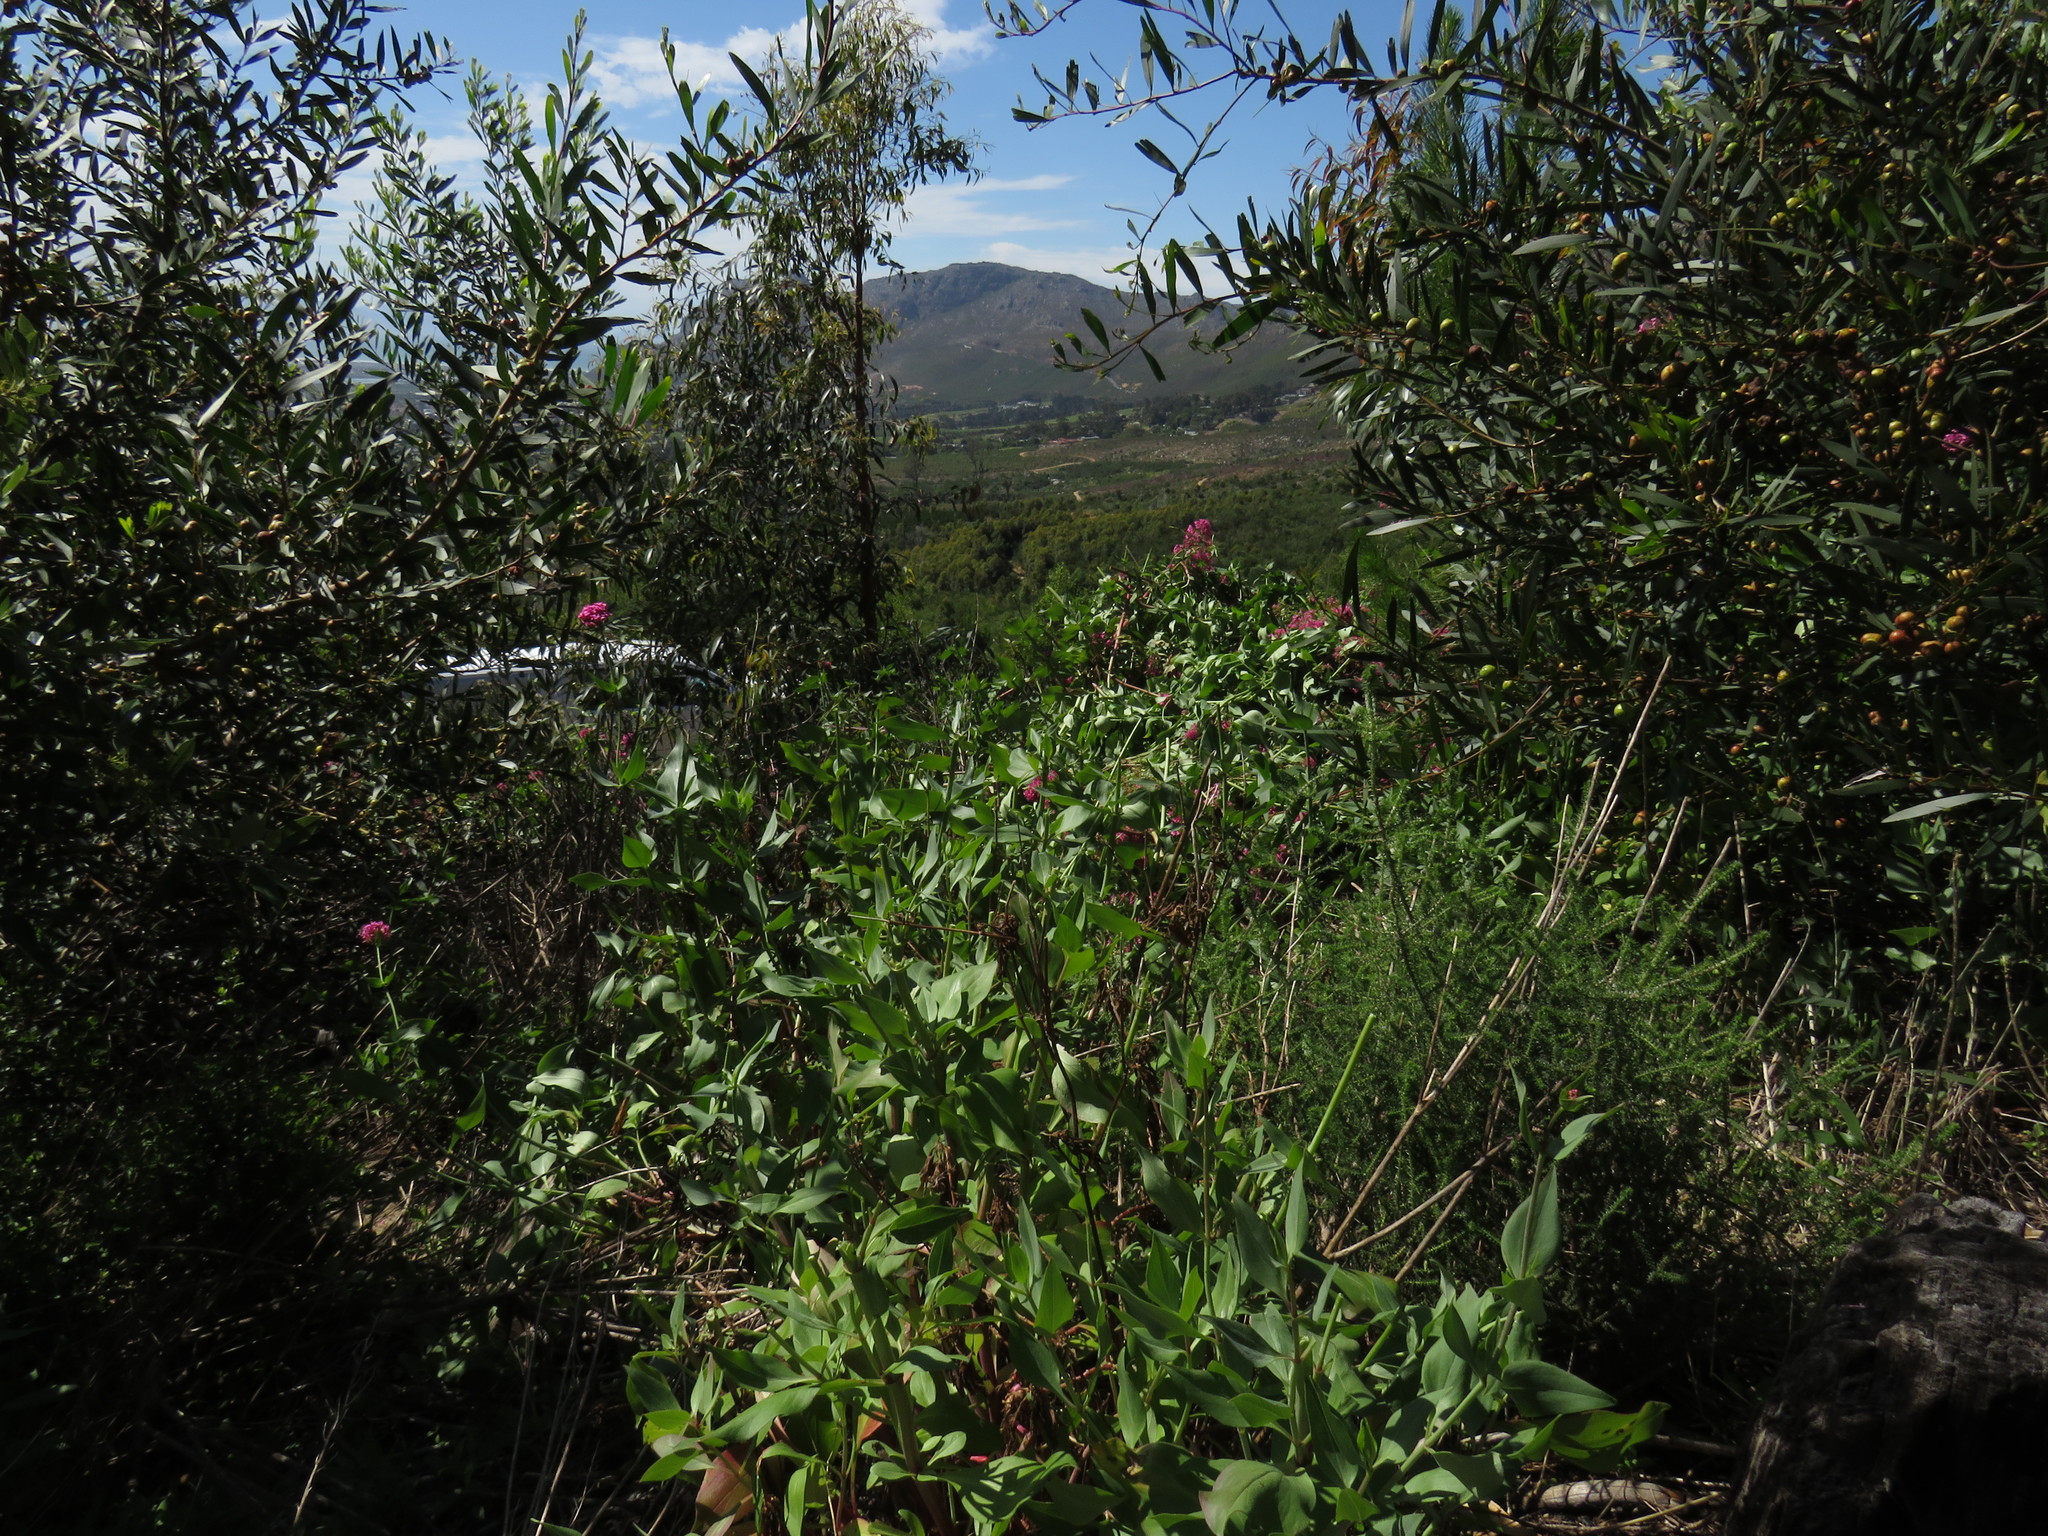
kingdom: Plantae
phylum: Tracheophyta
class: Magnoliopsida
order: Fabales
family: Fabaceae
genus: Acacia
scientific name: Acacia longifolia
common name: Sydney golden wattle
